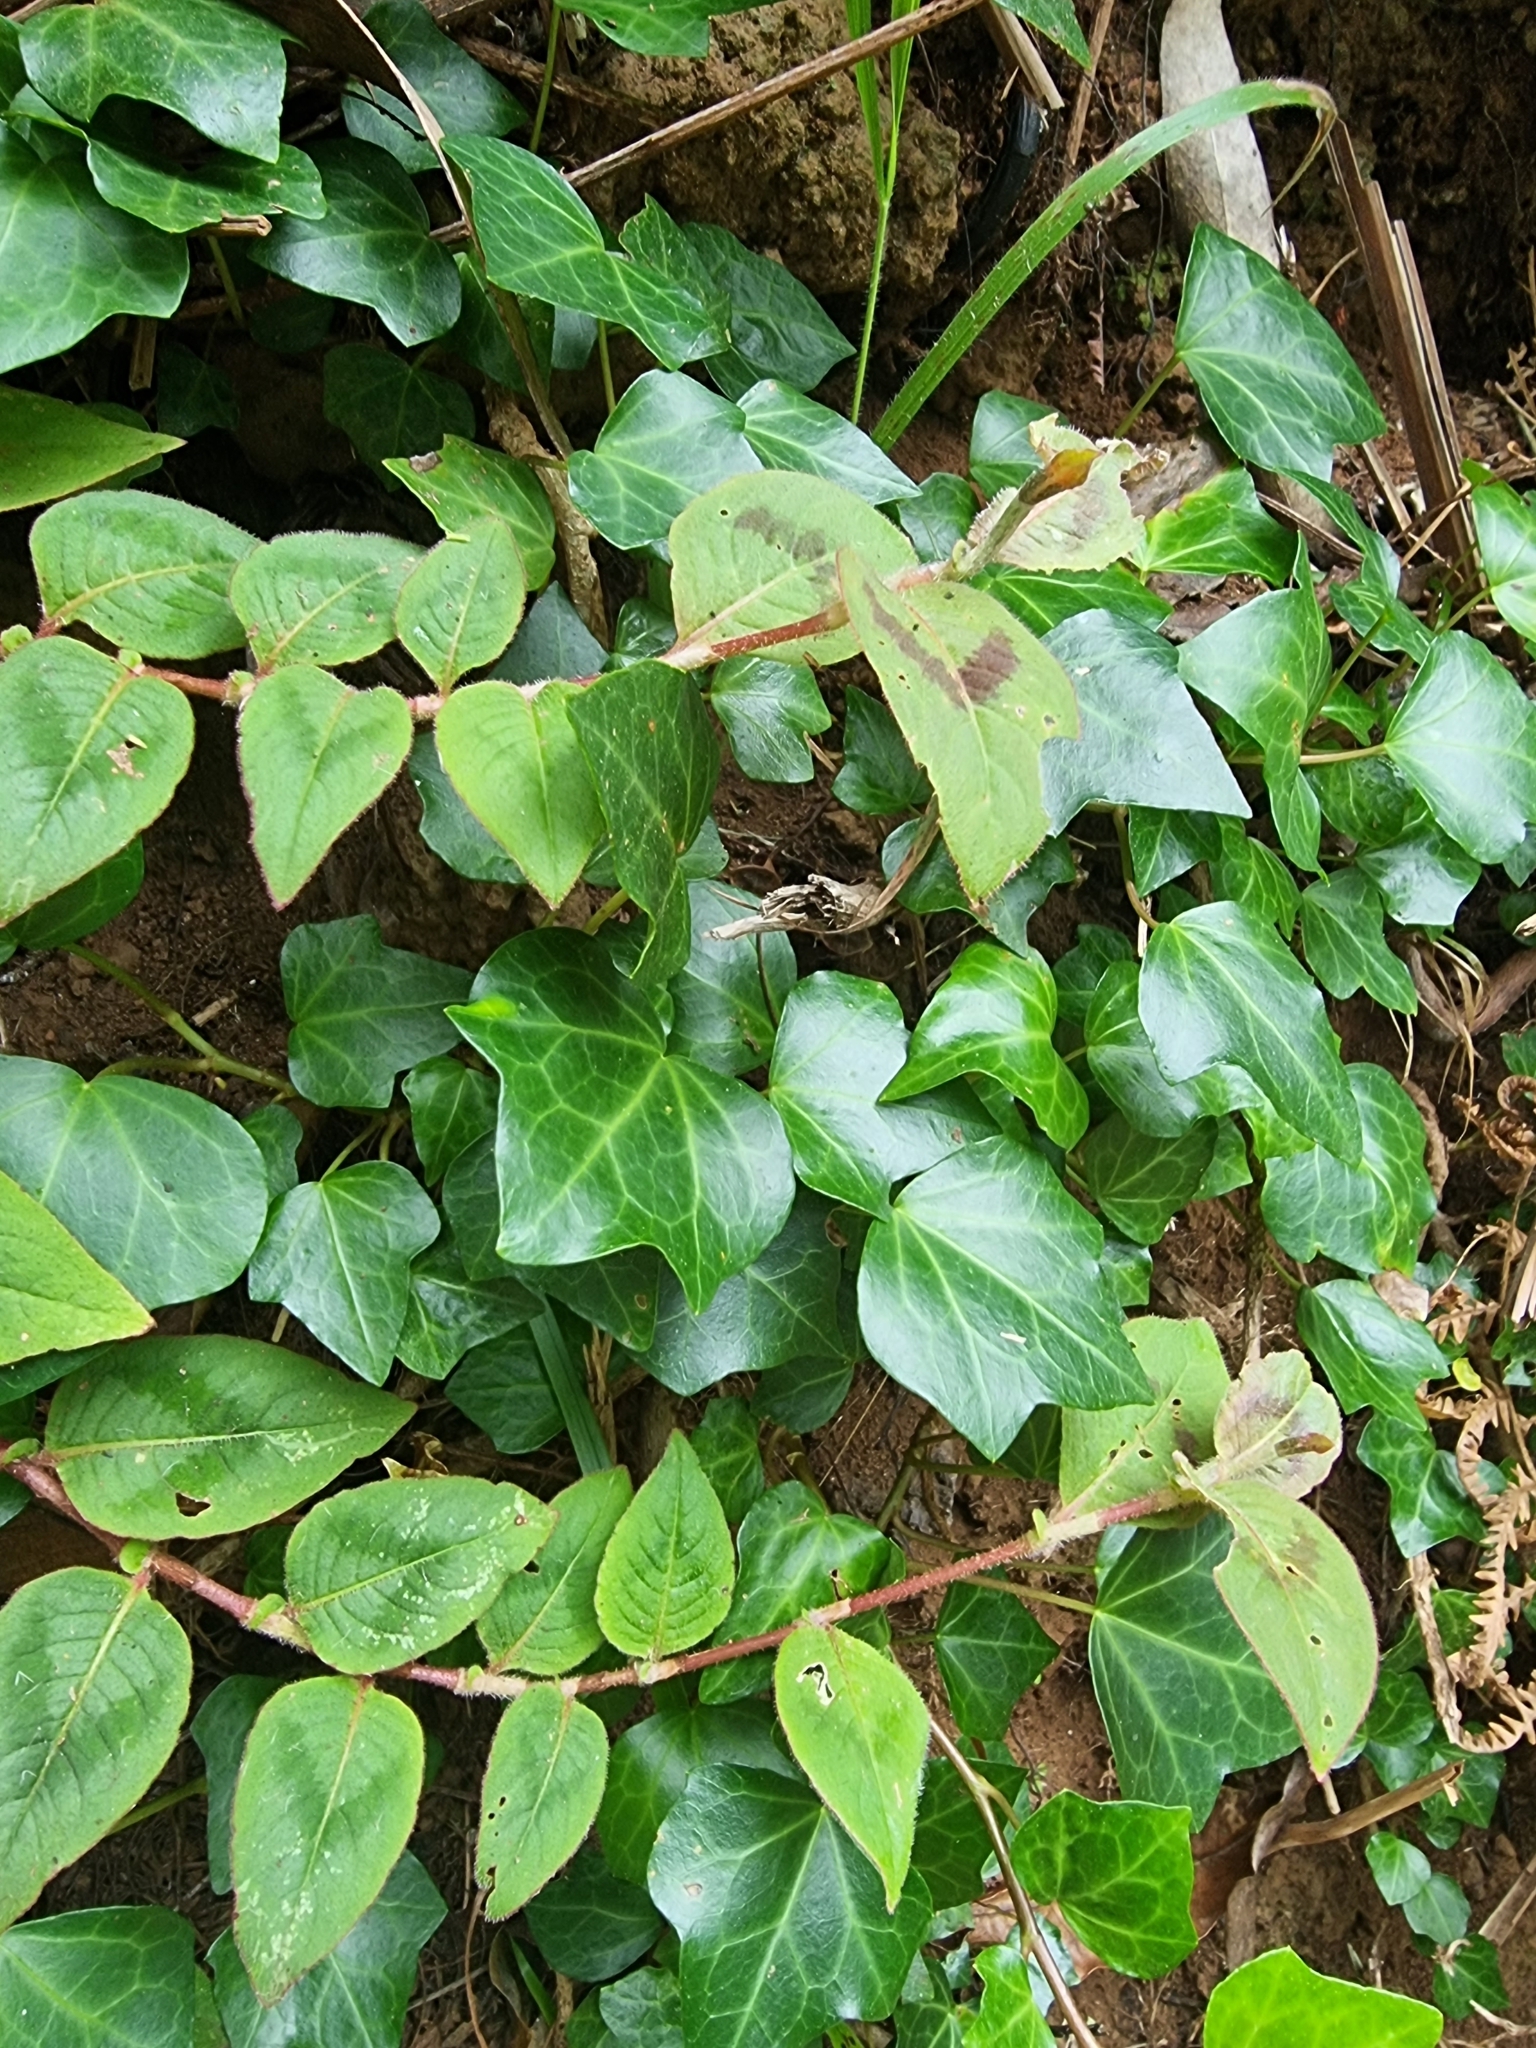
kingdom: Plantae
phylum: Tracheophyta
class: Magnoliopsida
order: Apiales
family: Araliaceae
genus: Hedera
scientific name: Hedera maderensis
